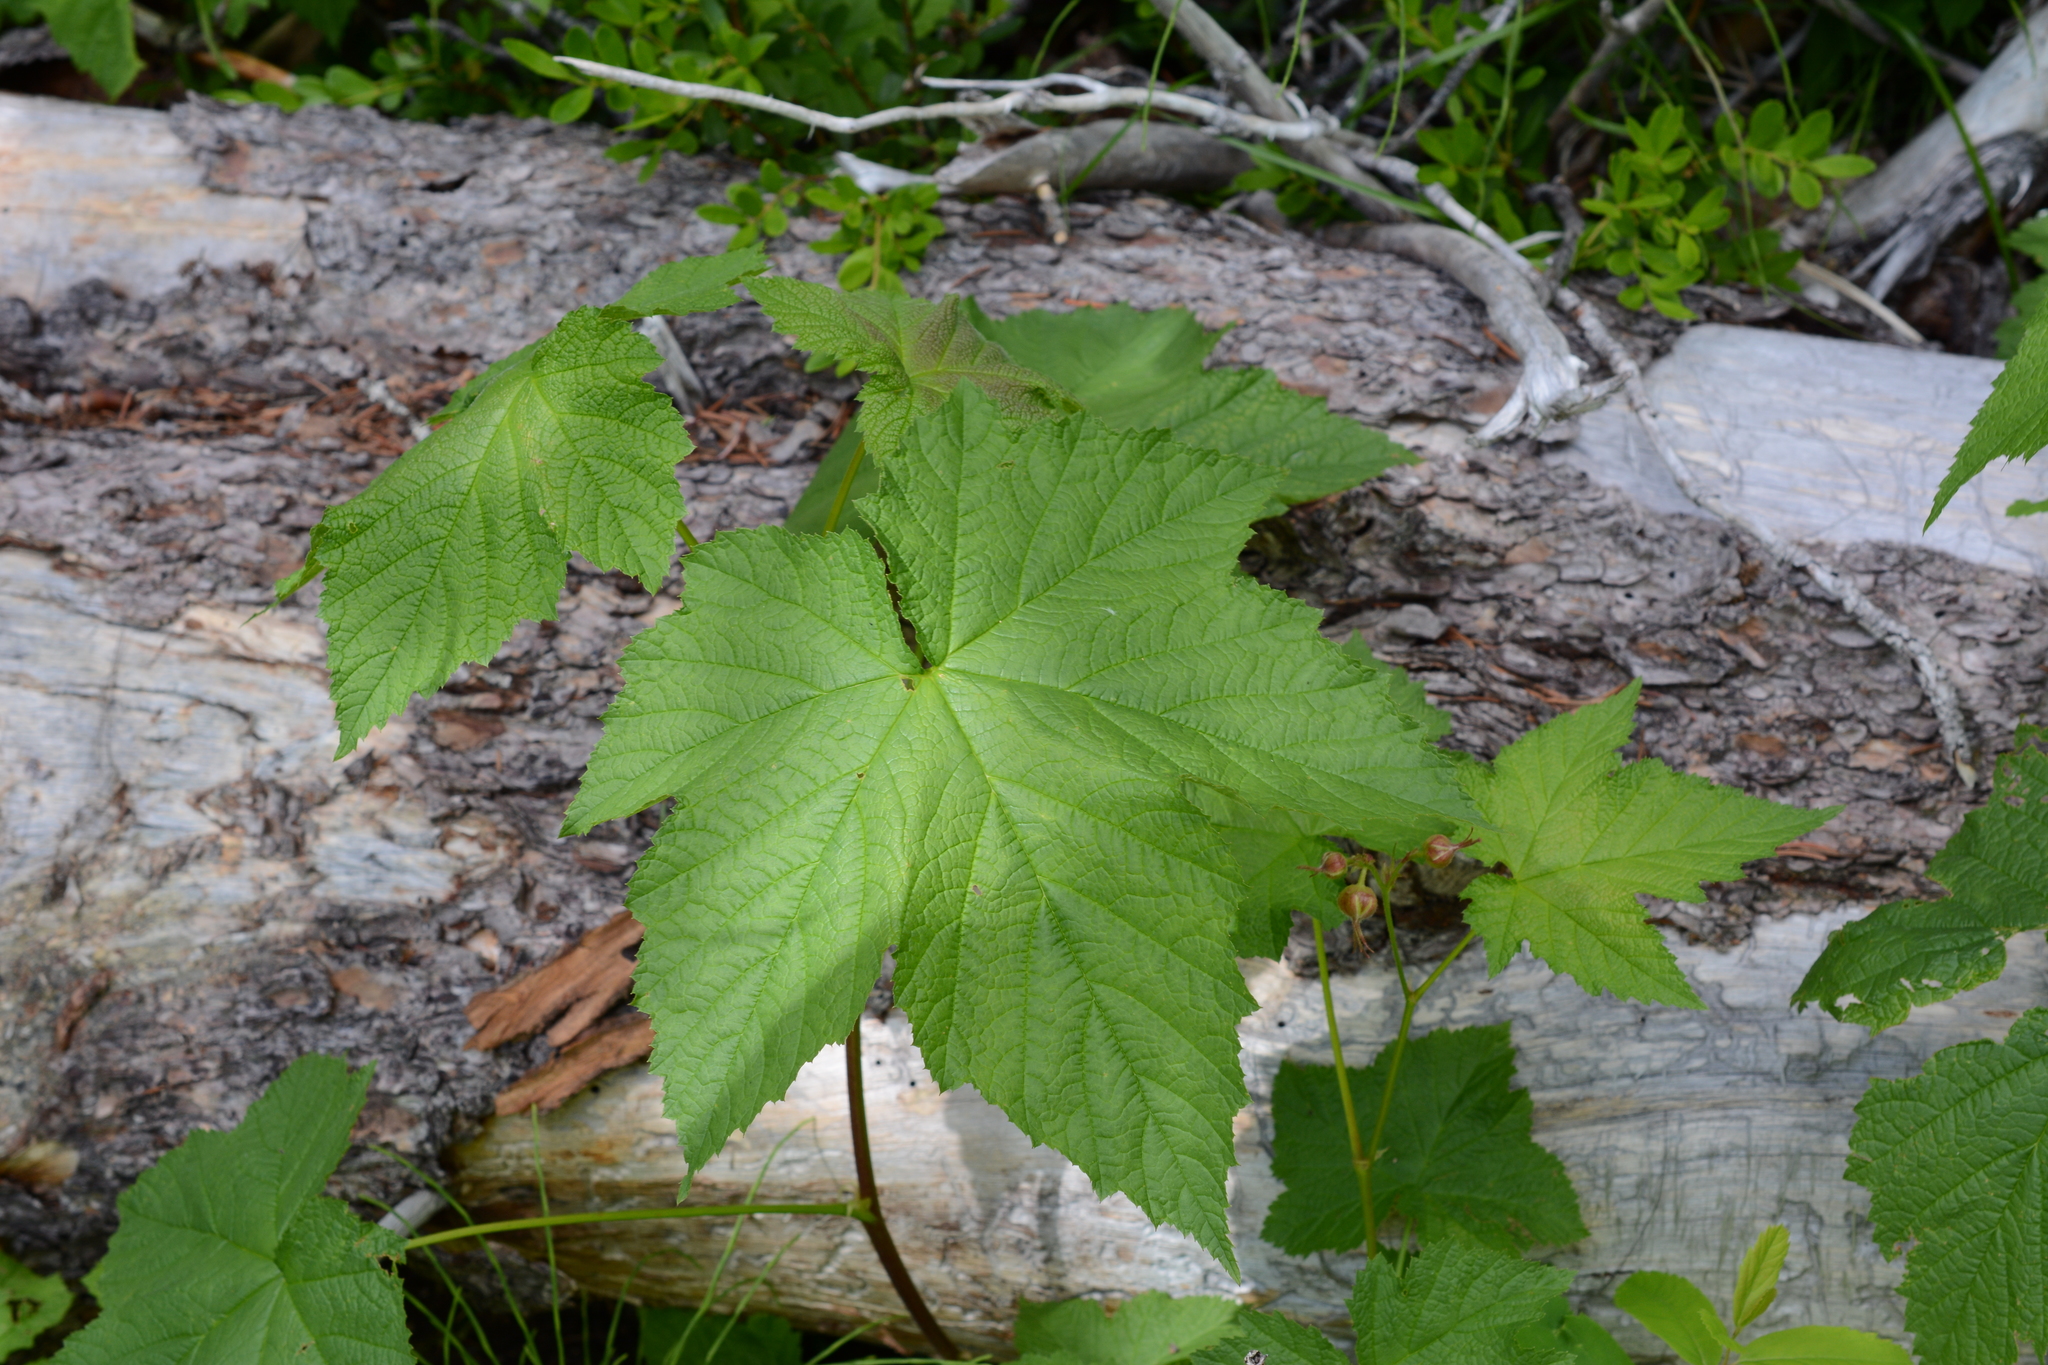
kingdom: Plantae
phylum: Tracheophyta
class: Magnoliopsida
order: Rosales
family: Rosaceae
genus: Rubus
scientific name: Rubus parviflorus
